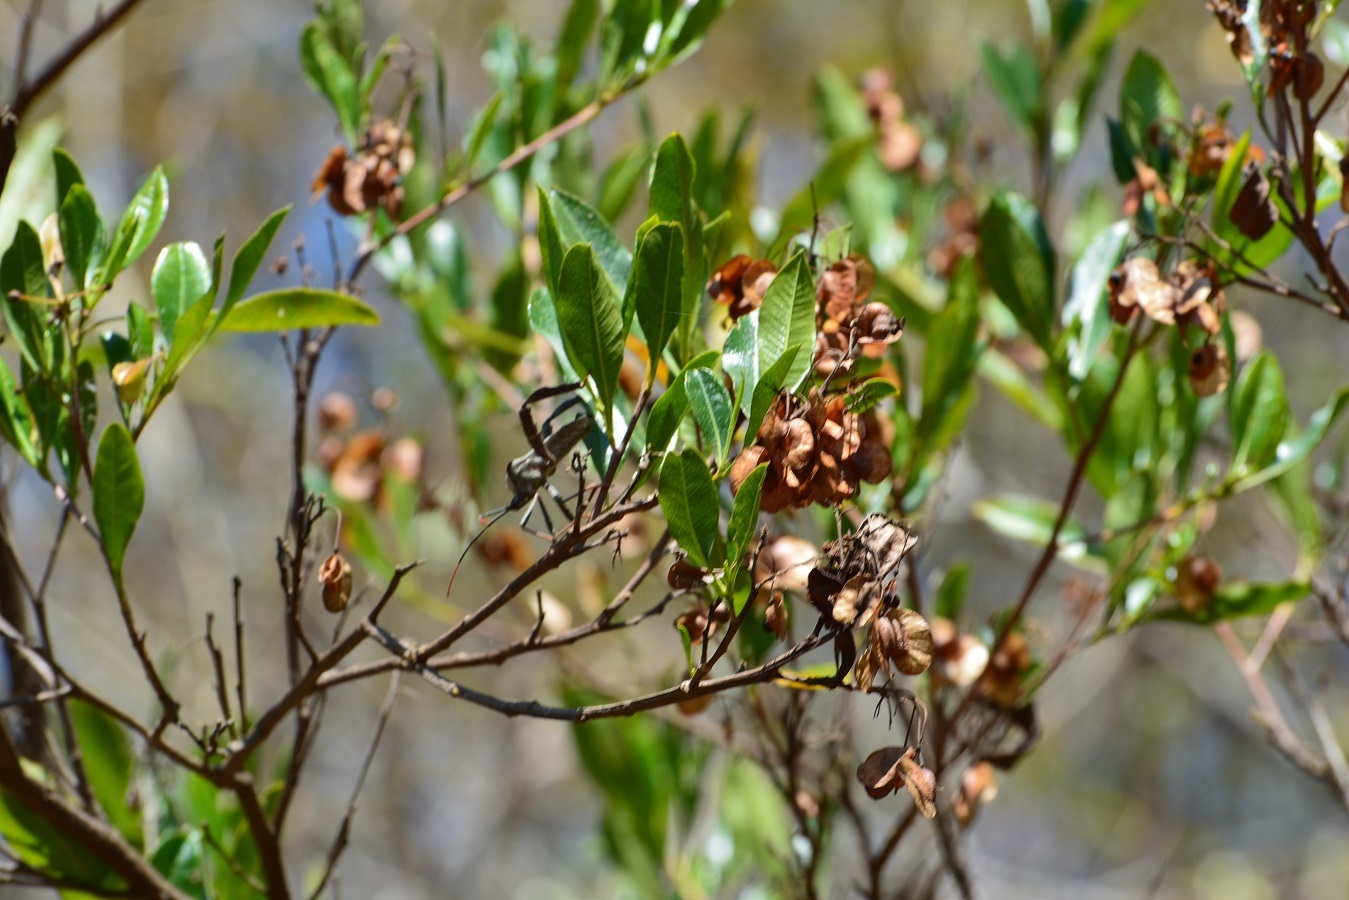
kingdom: Plantae
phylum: Tracheophyta
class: Magnoliopsida
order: Sapindales
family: Sapindaceae
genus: Dodonaea
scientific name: Dodonaea viscosa
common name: Hopbush
